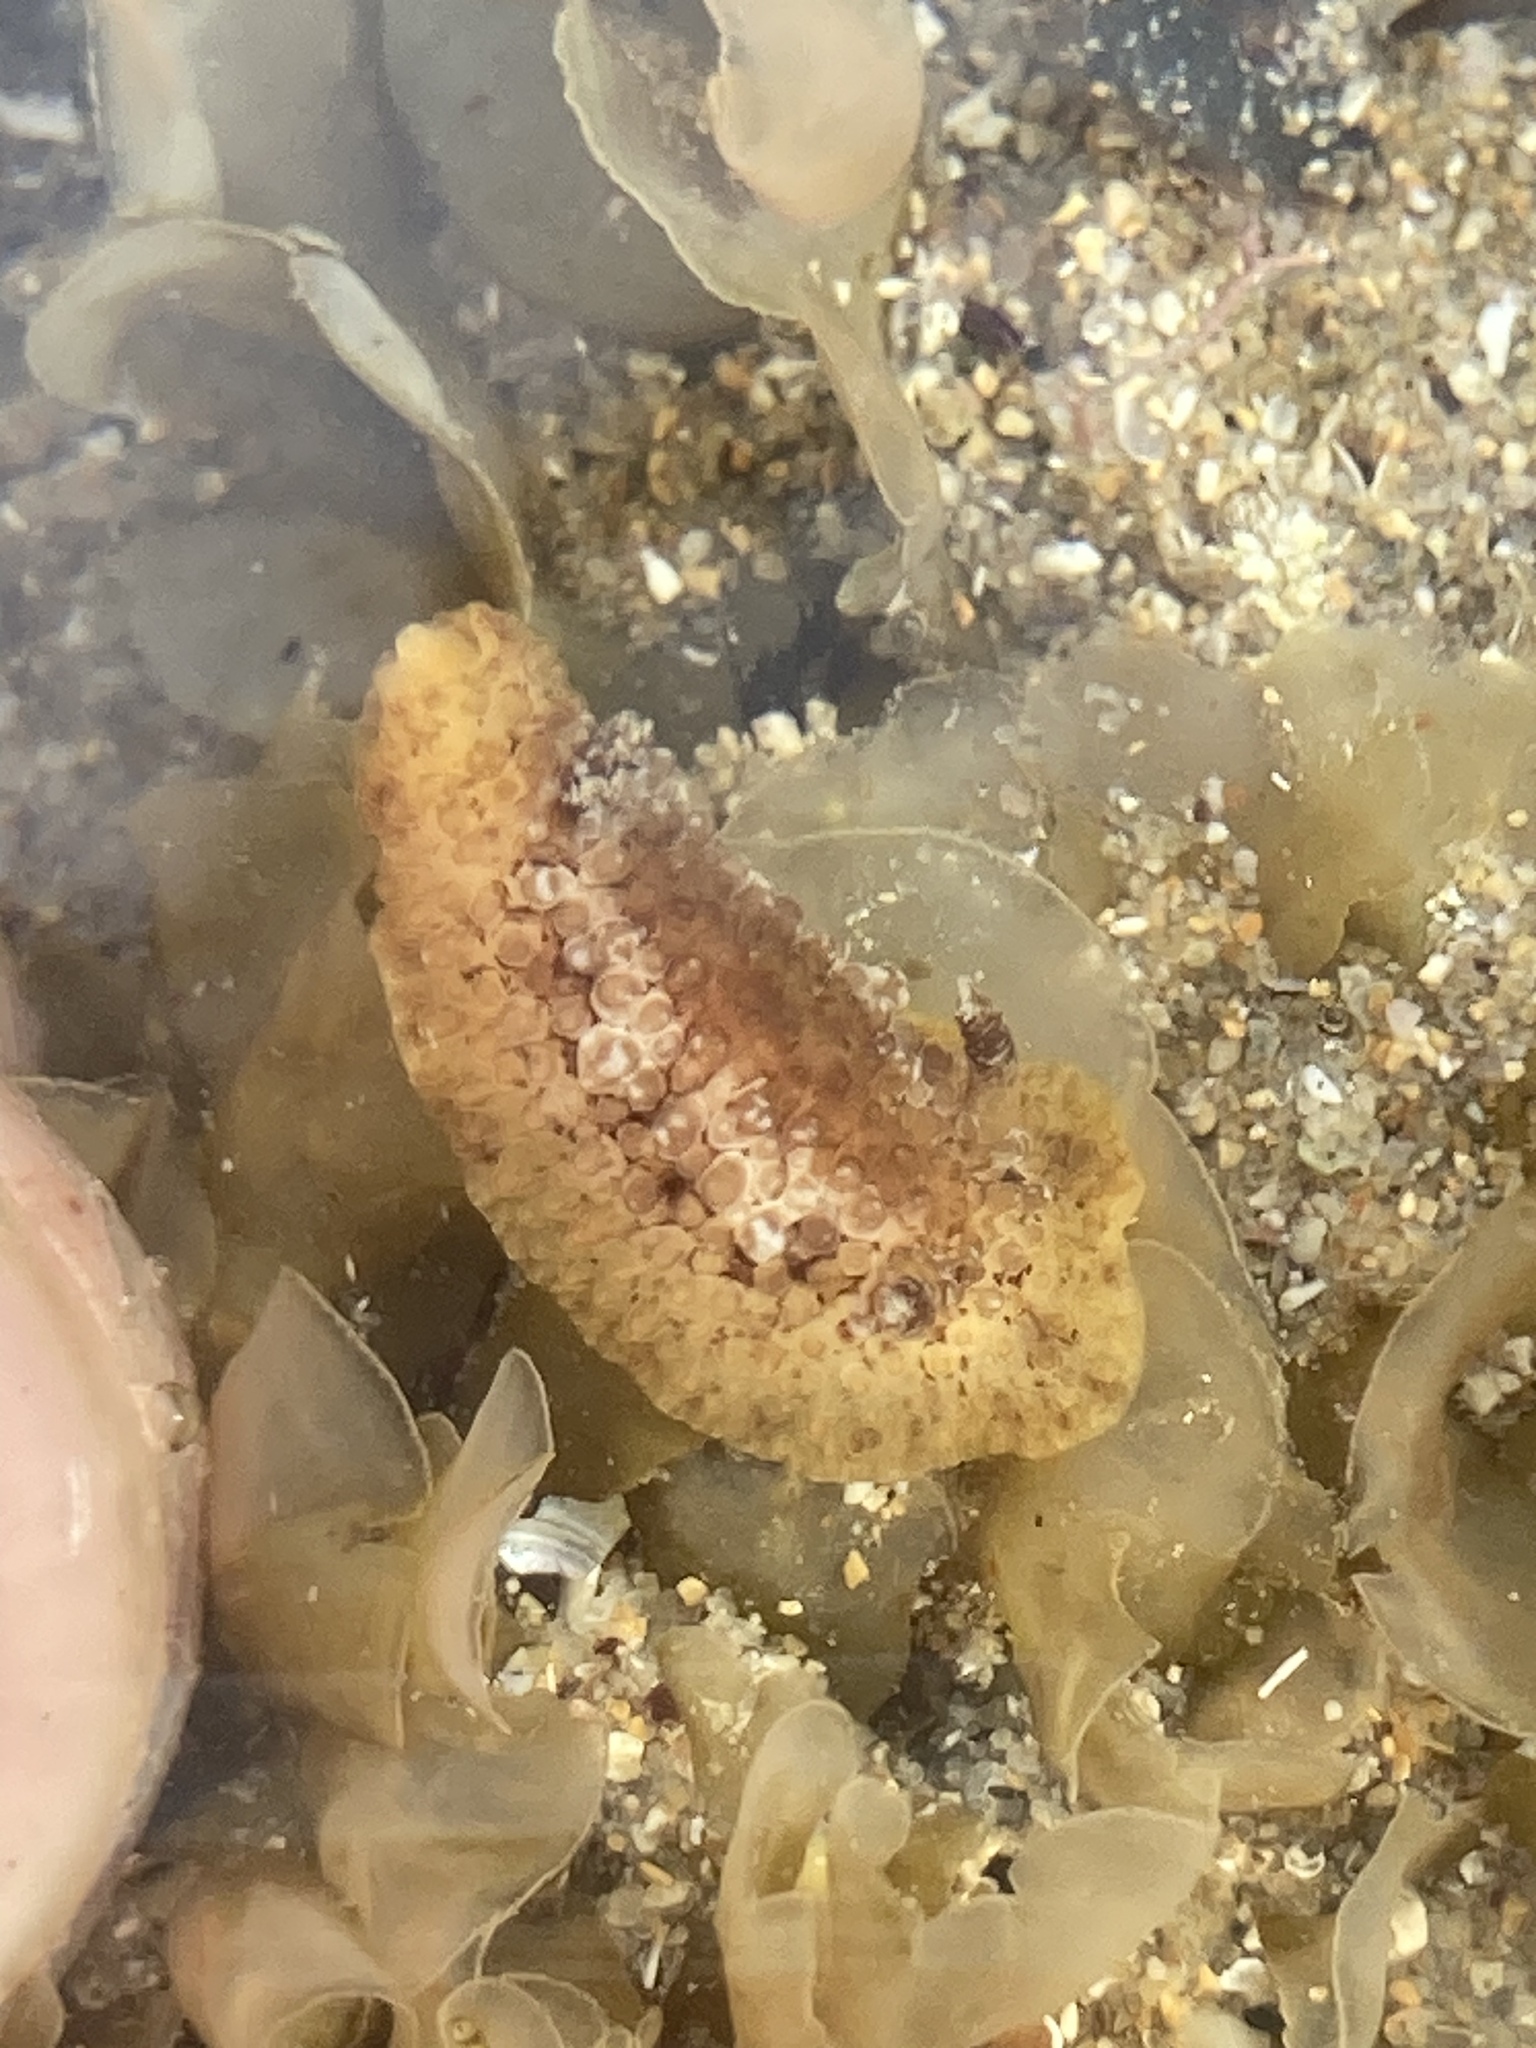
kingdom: Animalia
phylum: Mollusca
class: Gastropoda
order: Nudibranchia
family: Discodorididae
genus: Carminodoris
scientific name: Carminodoris nodulosa
